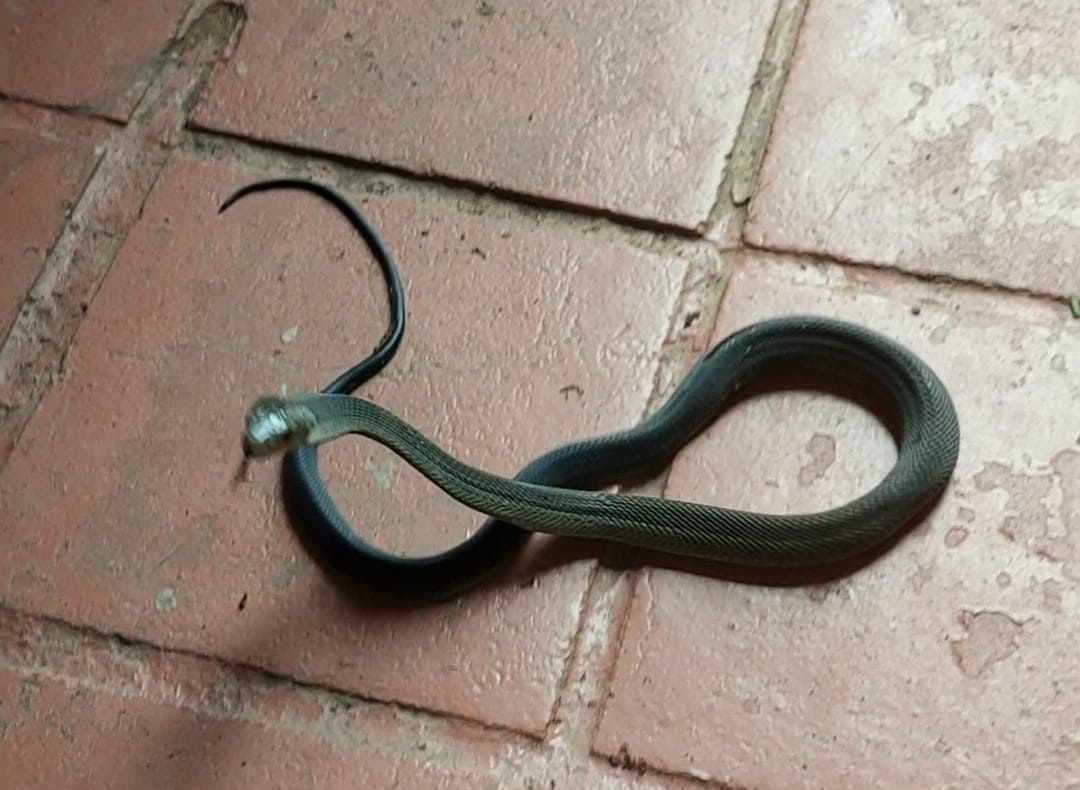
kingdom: Animalia
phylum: Chordata
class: Squamata
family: Elapidae
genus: Dendroaspis
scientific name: Dendroaspis polylepis
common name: Black mamba
